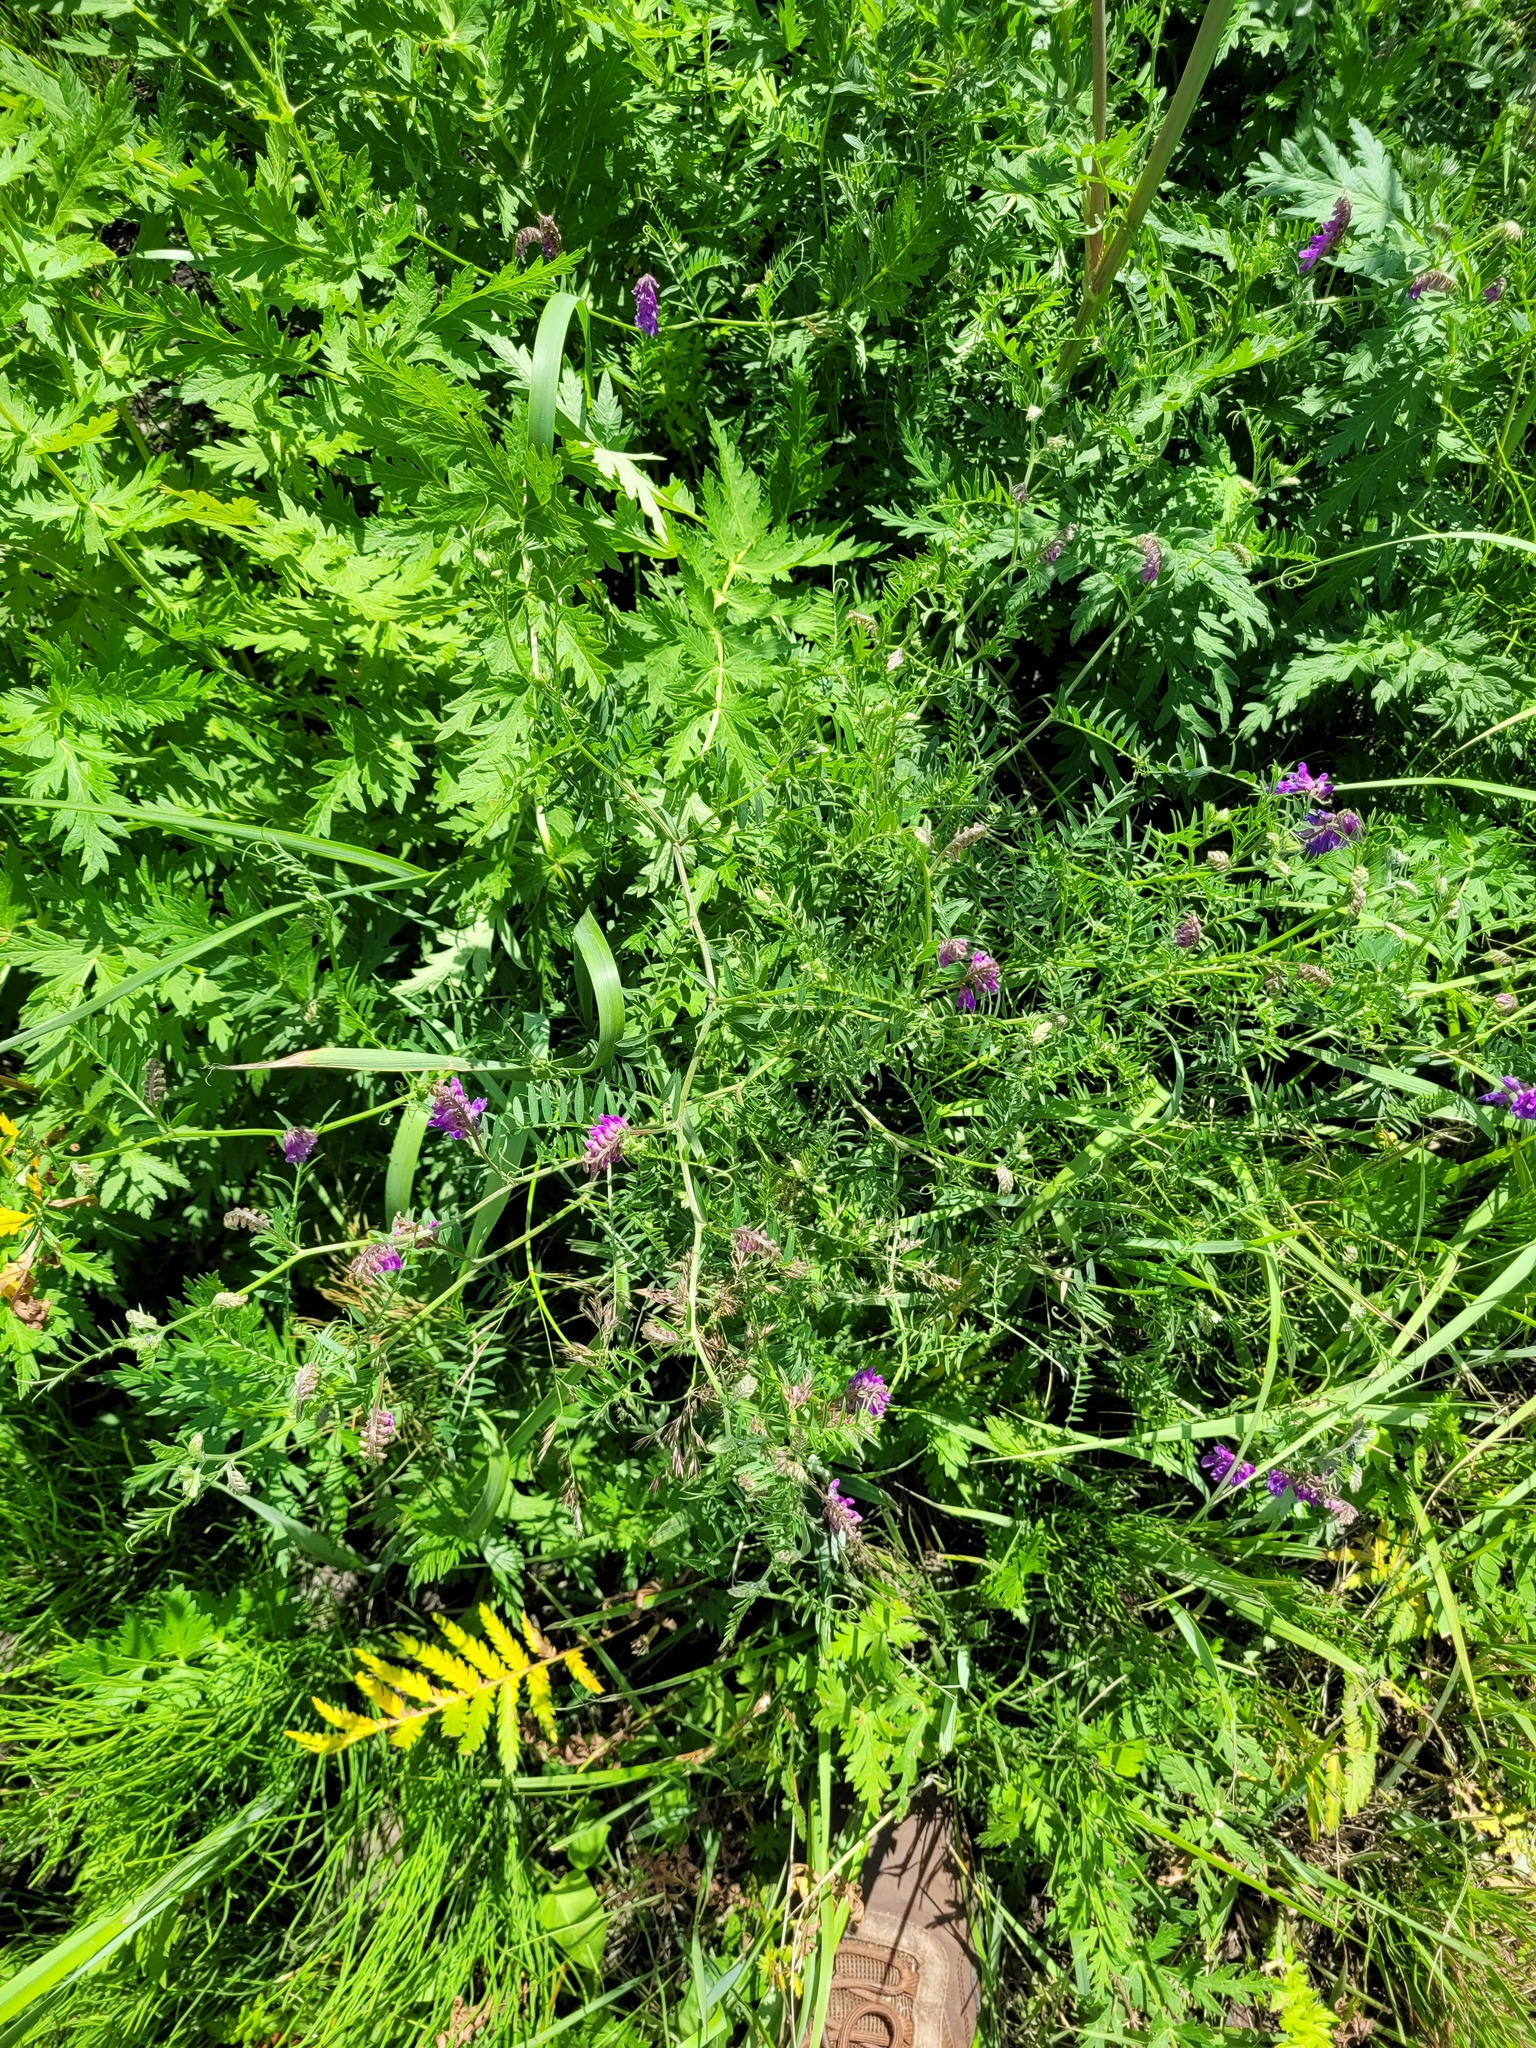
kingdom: Plantae
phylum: Tracheophyta
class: Magnoliopsida
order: Fabales
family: Fabaceae
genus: Vicia
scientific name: Vicia cracca
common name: Bird vetch
